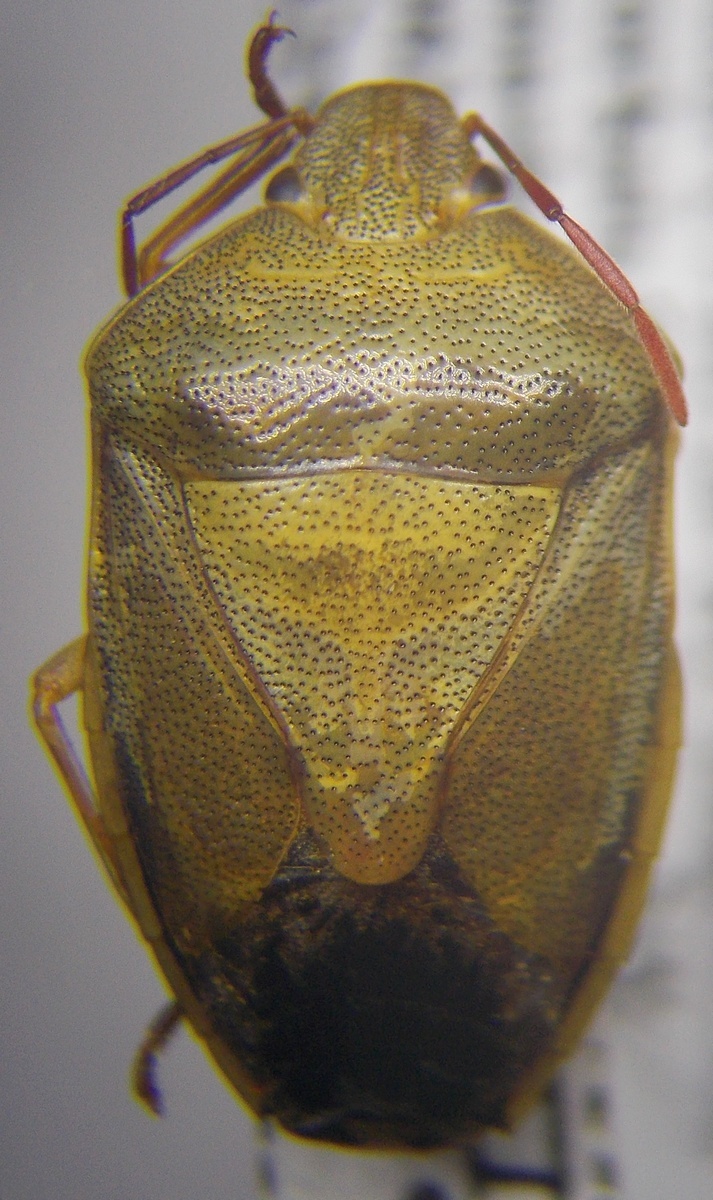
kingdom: Animalia
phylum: Arthropoda
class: Insecta
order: Hemiptera
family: Pentatomidae
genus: Piezodorus
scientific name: Piezodorus lituratus
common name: Stink bug
